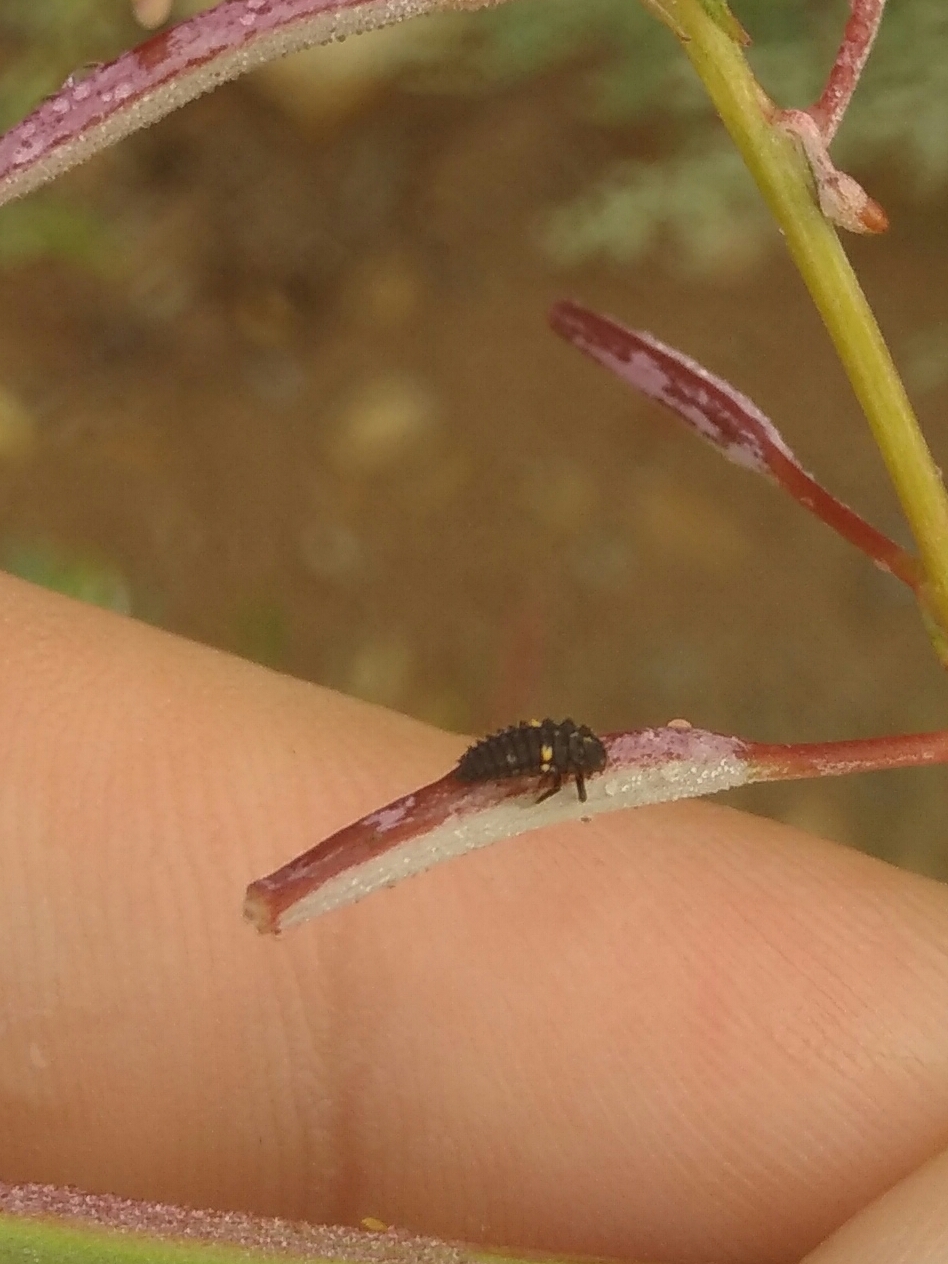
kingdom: Animalia
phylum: Arthropoda
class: Insecta
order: Coleoptera
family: Coccinellidae
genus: Ceratomegilla
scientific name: Ceratomegilla
